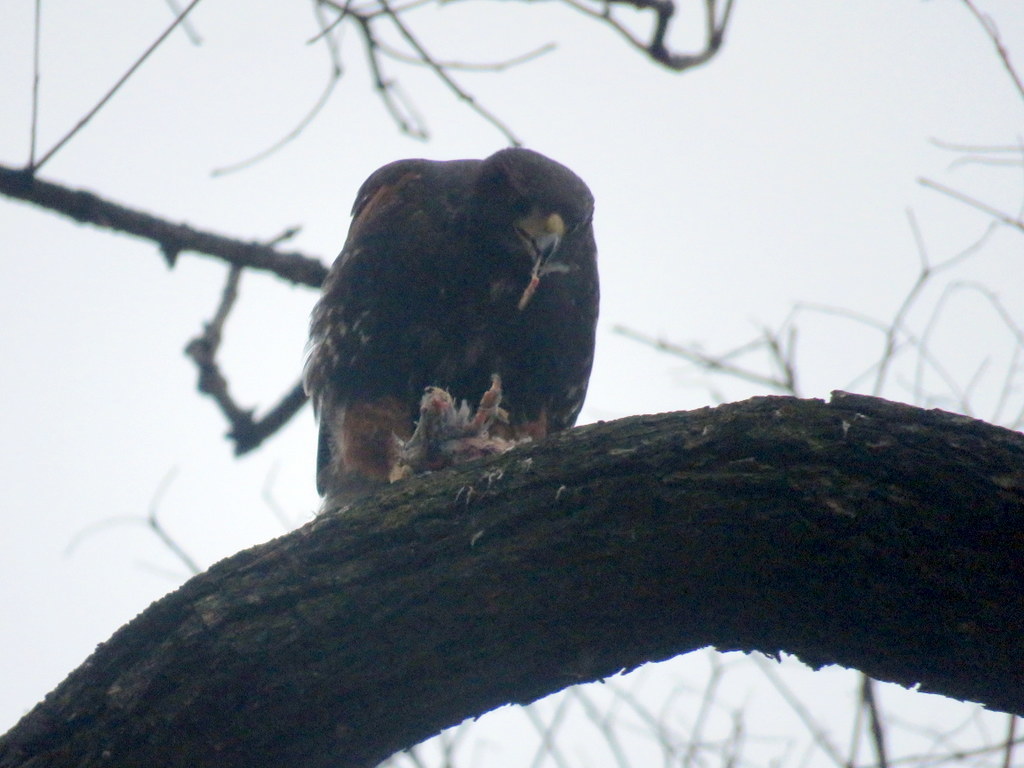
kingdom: Animalia
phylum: Chordata
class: Aves
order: Accipitriformes
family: Accipitridae
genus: Parabuteo
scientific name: Parabuteo unicinctus
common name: Harris's hawk
